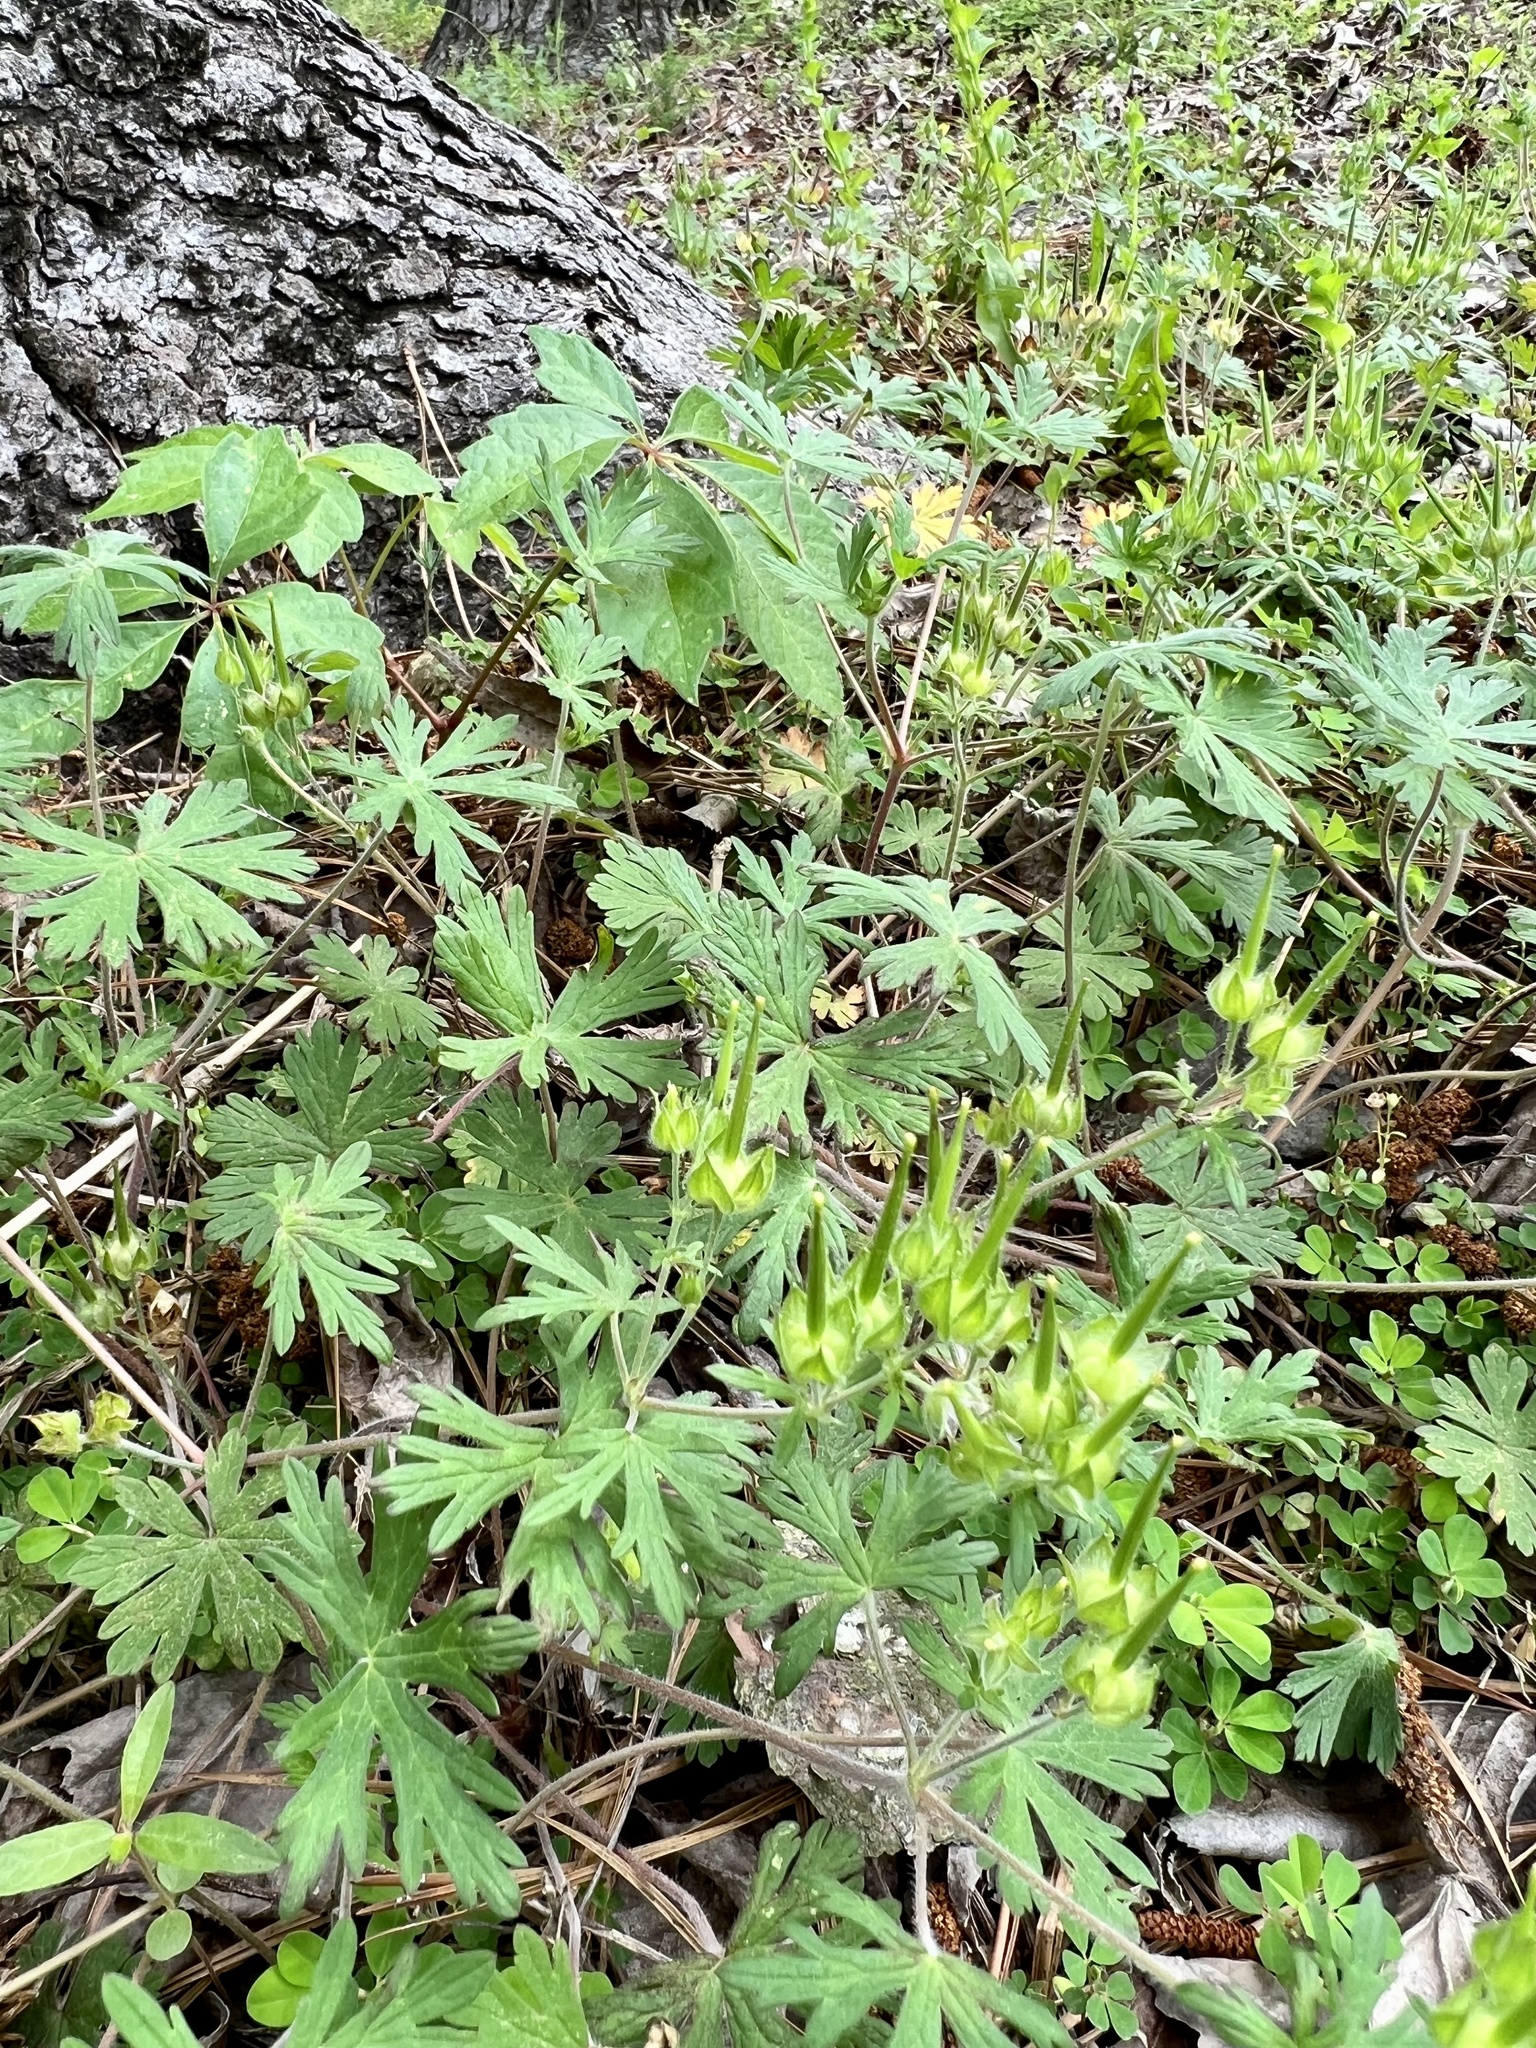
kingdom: Plantae
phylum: Tracheophyta
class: Magnoliopsida
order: Geraniales
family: Geraniaceae
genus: Geranium
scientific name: Geranium carolinianum
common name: Carolina crane's-bill
